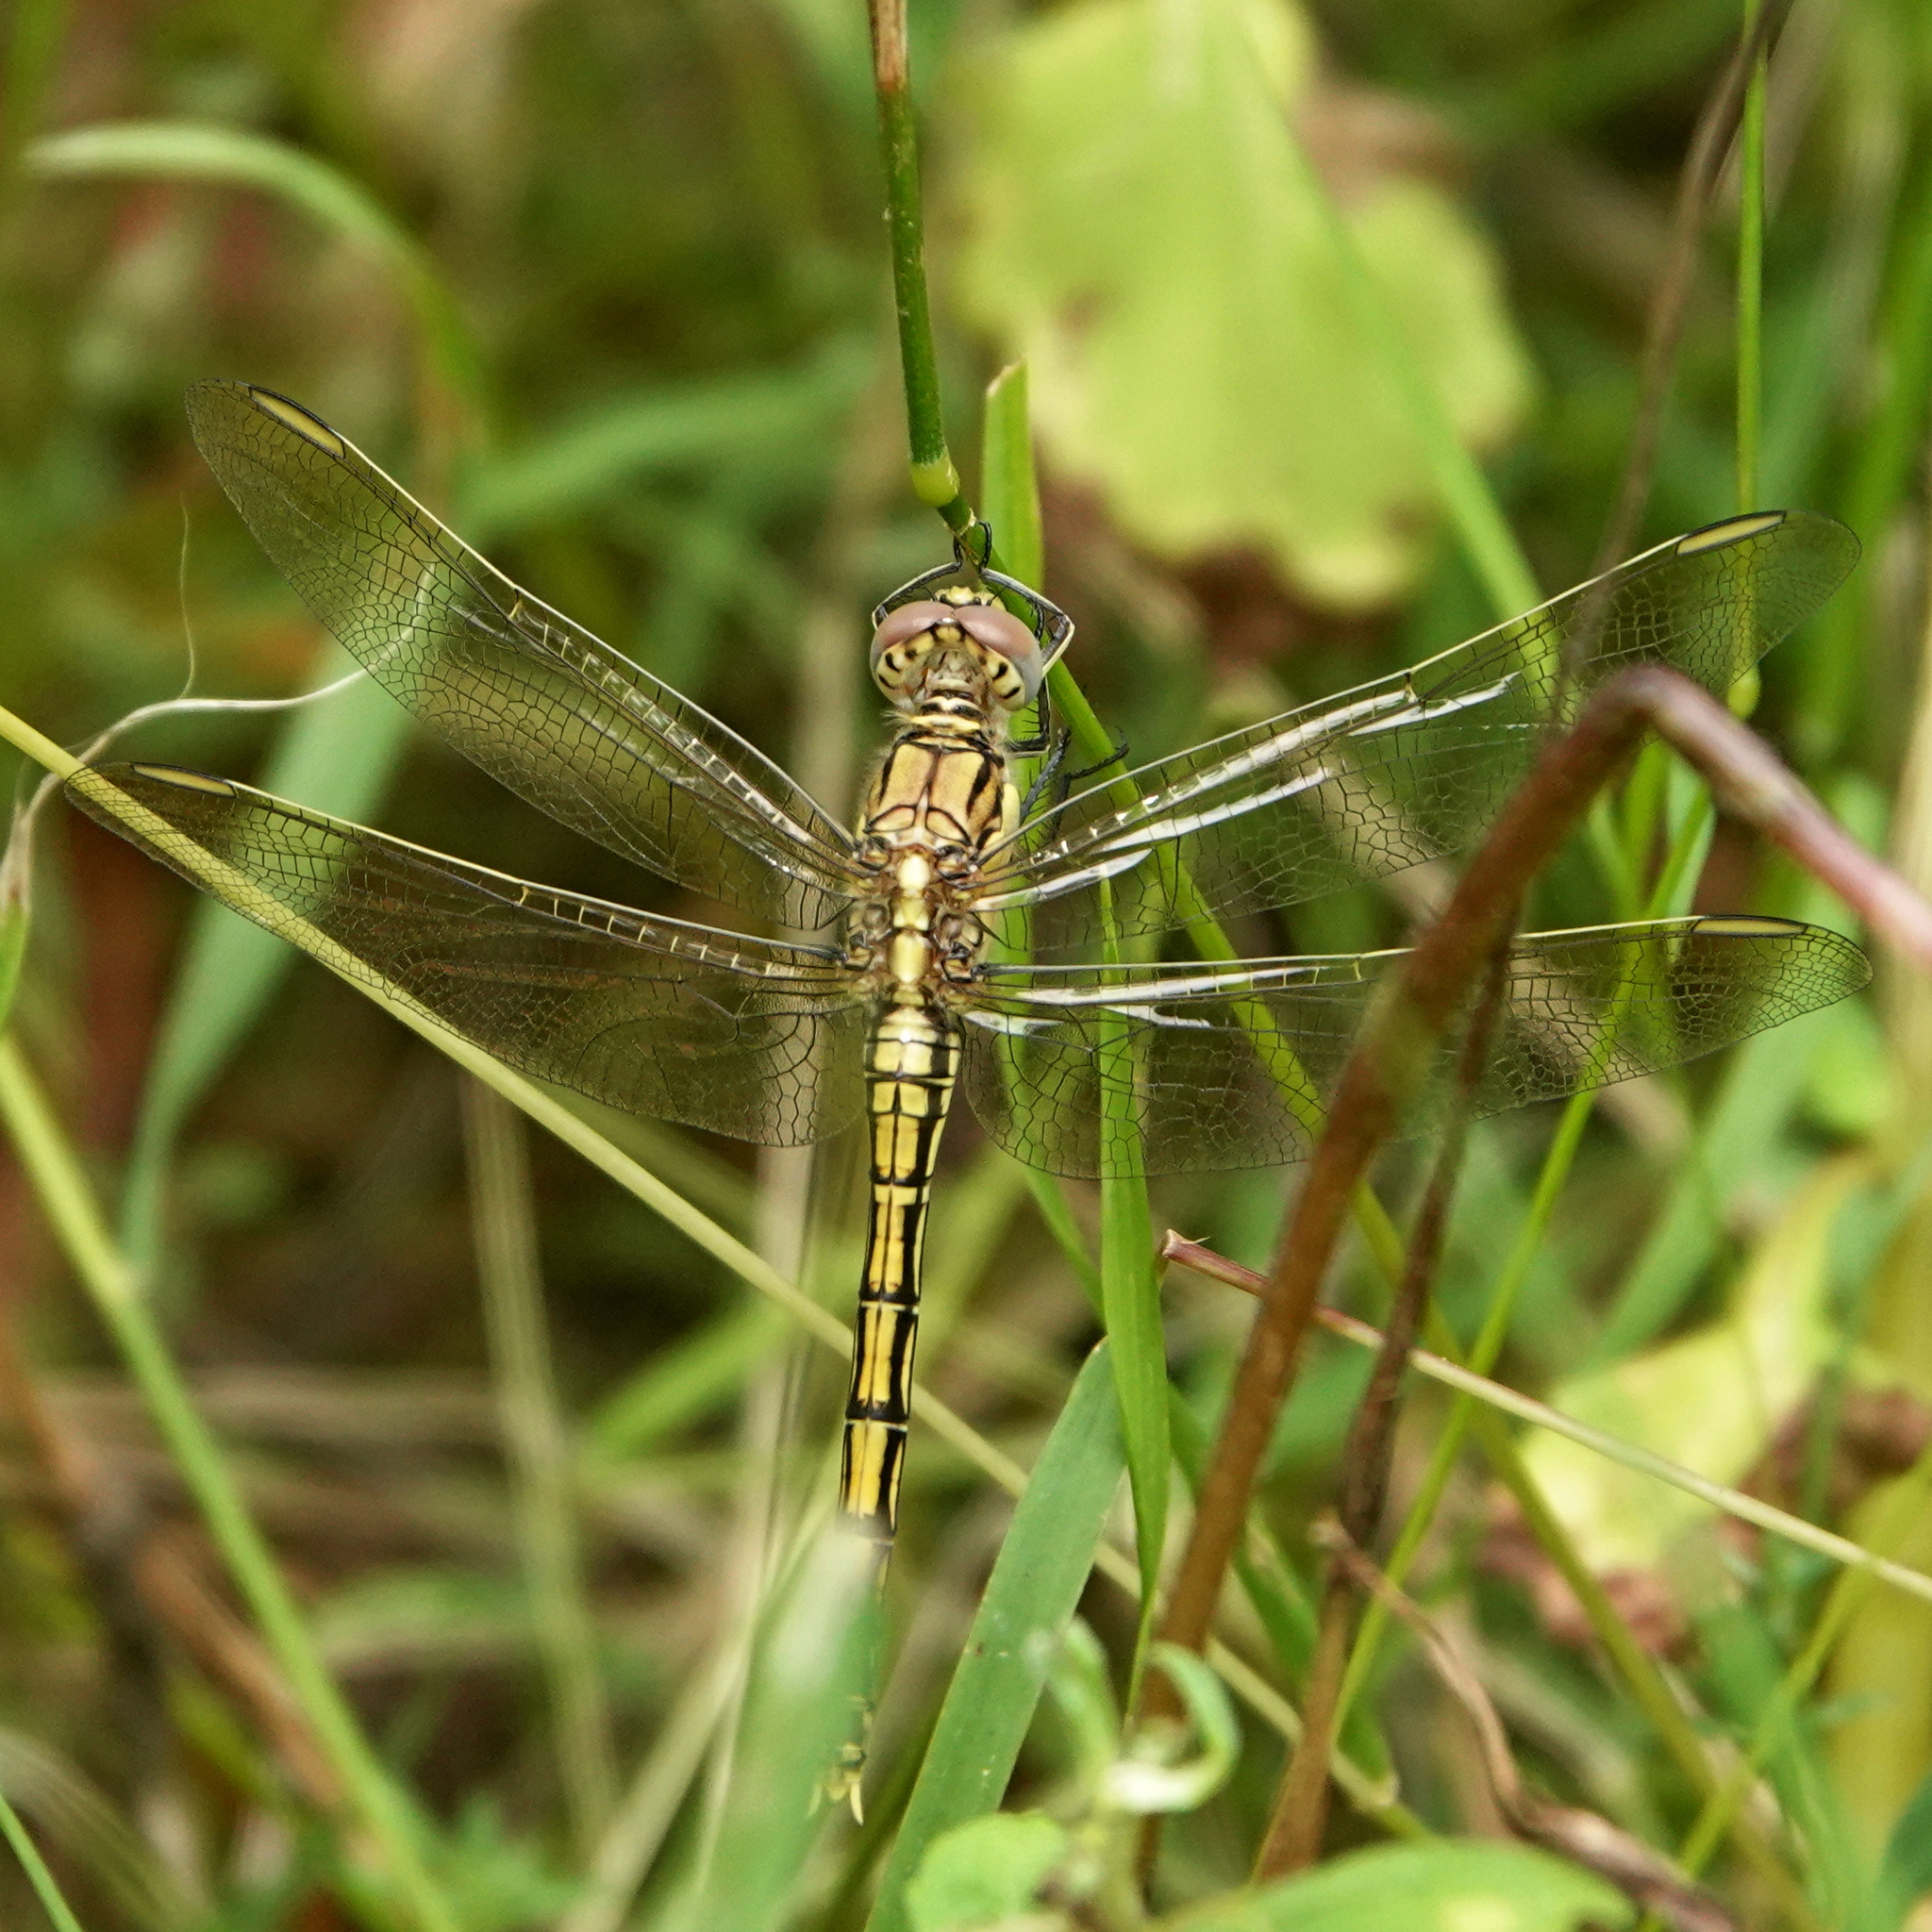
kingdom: Animalia
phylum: Arthropoda
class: Insecta
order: Odonata
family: Libellulidae
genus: Orthetrum
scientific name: Orthetrum caledonicum
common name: Blue skimmer
